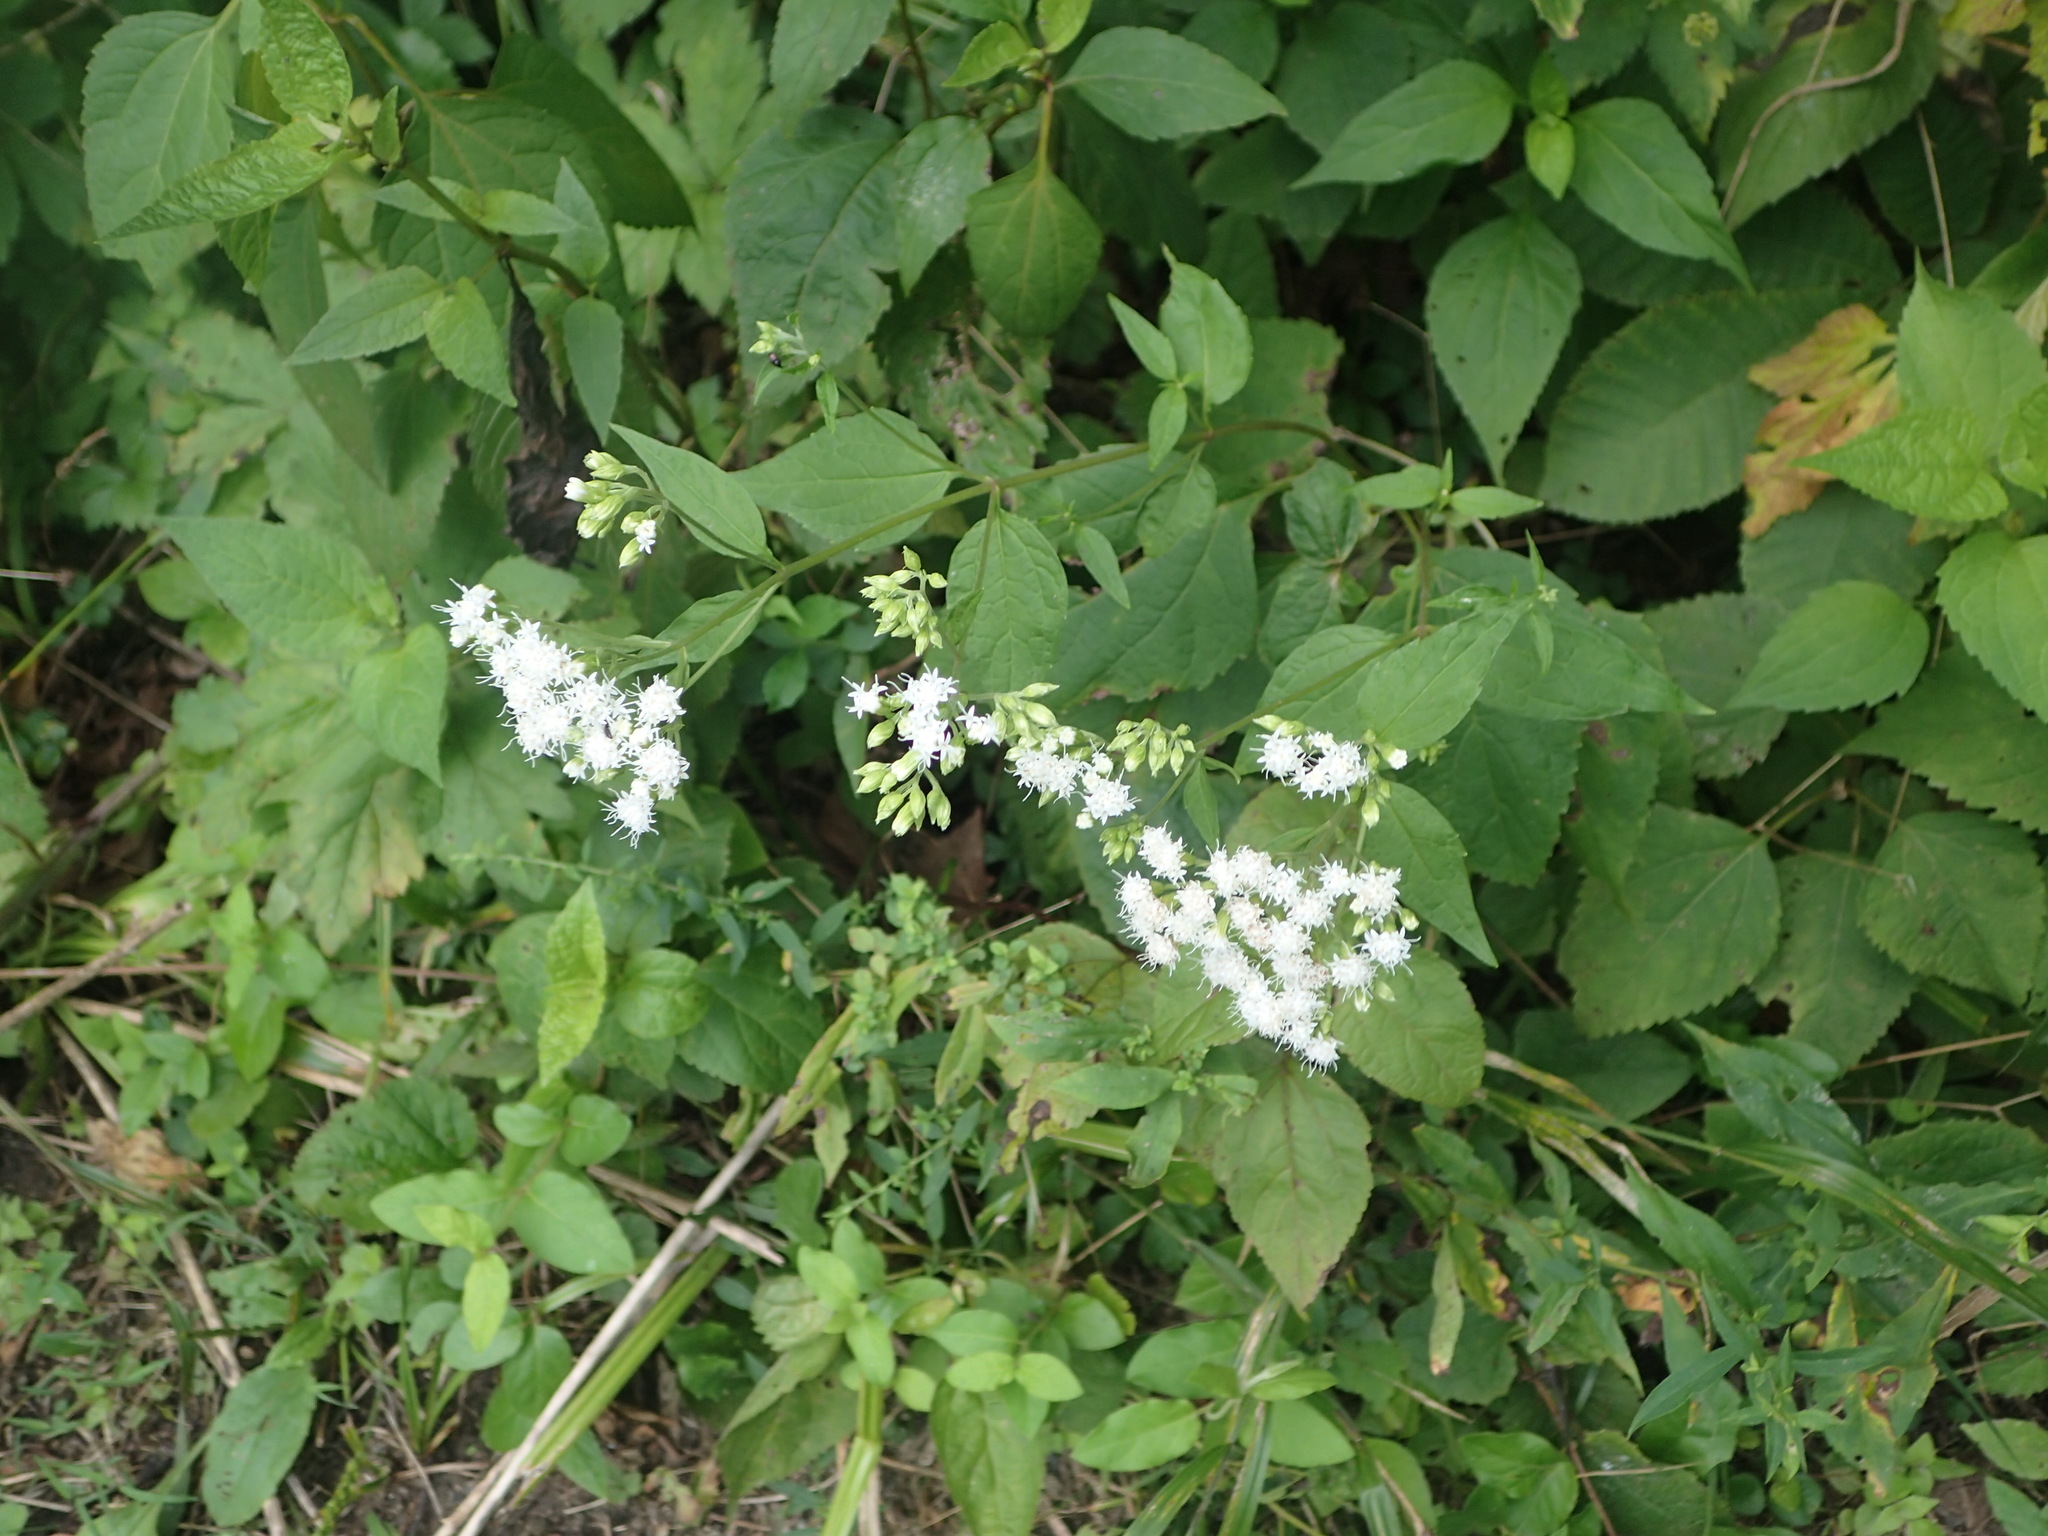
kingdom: Plantae
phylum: Tracheophyta
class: Magnoliopsida
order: Asterales
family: Asteraceae
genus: Ageratina
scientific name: Ageratina altissima
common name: White snakeroot
